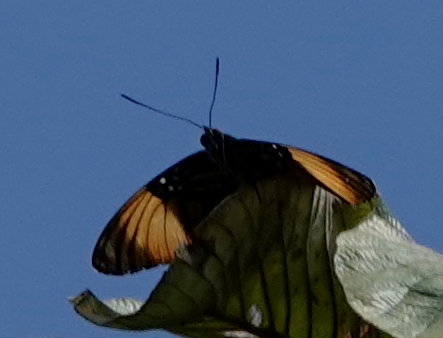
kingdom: Animalia
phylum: Arthropoda
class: Insecta
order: Lepidoptera
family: Nymphalidae
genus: Limenitis
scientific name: Limenitis melanthe
